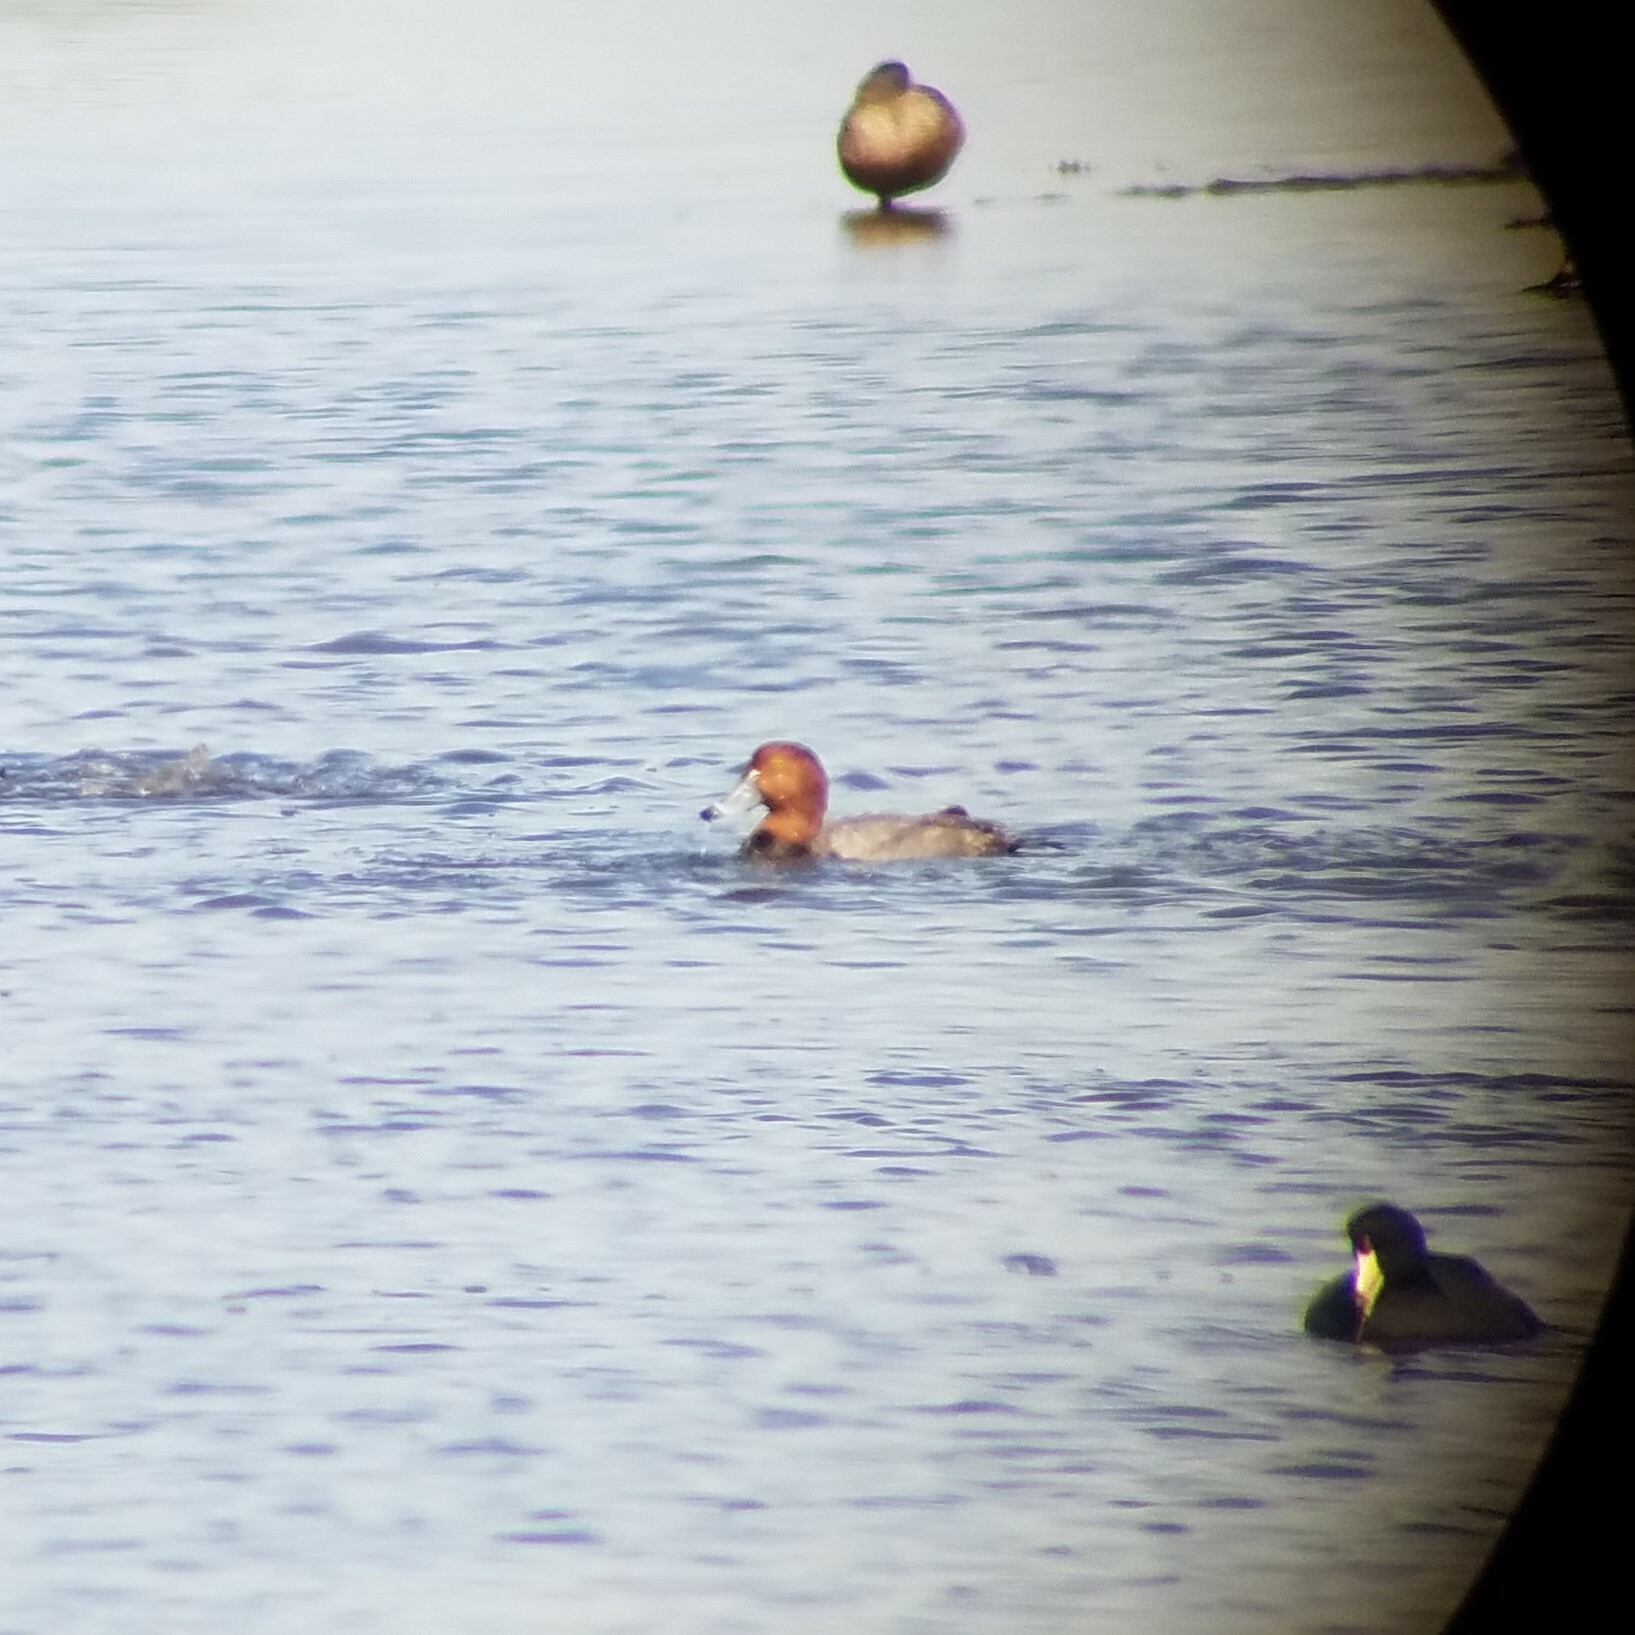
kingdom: Animalia
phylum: Chordata
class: Aves
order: Anseriformes
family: Anatidae
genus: Aythya
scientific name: Aythya americana
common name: Redhead
